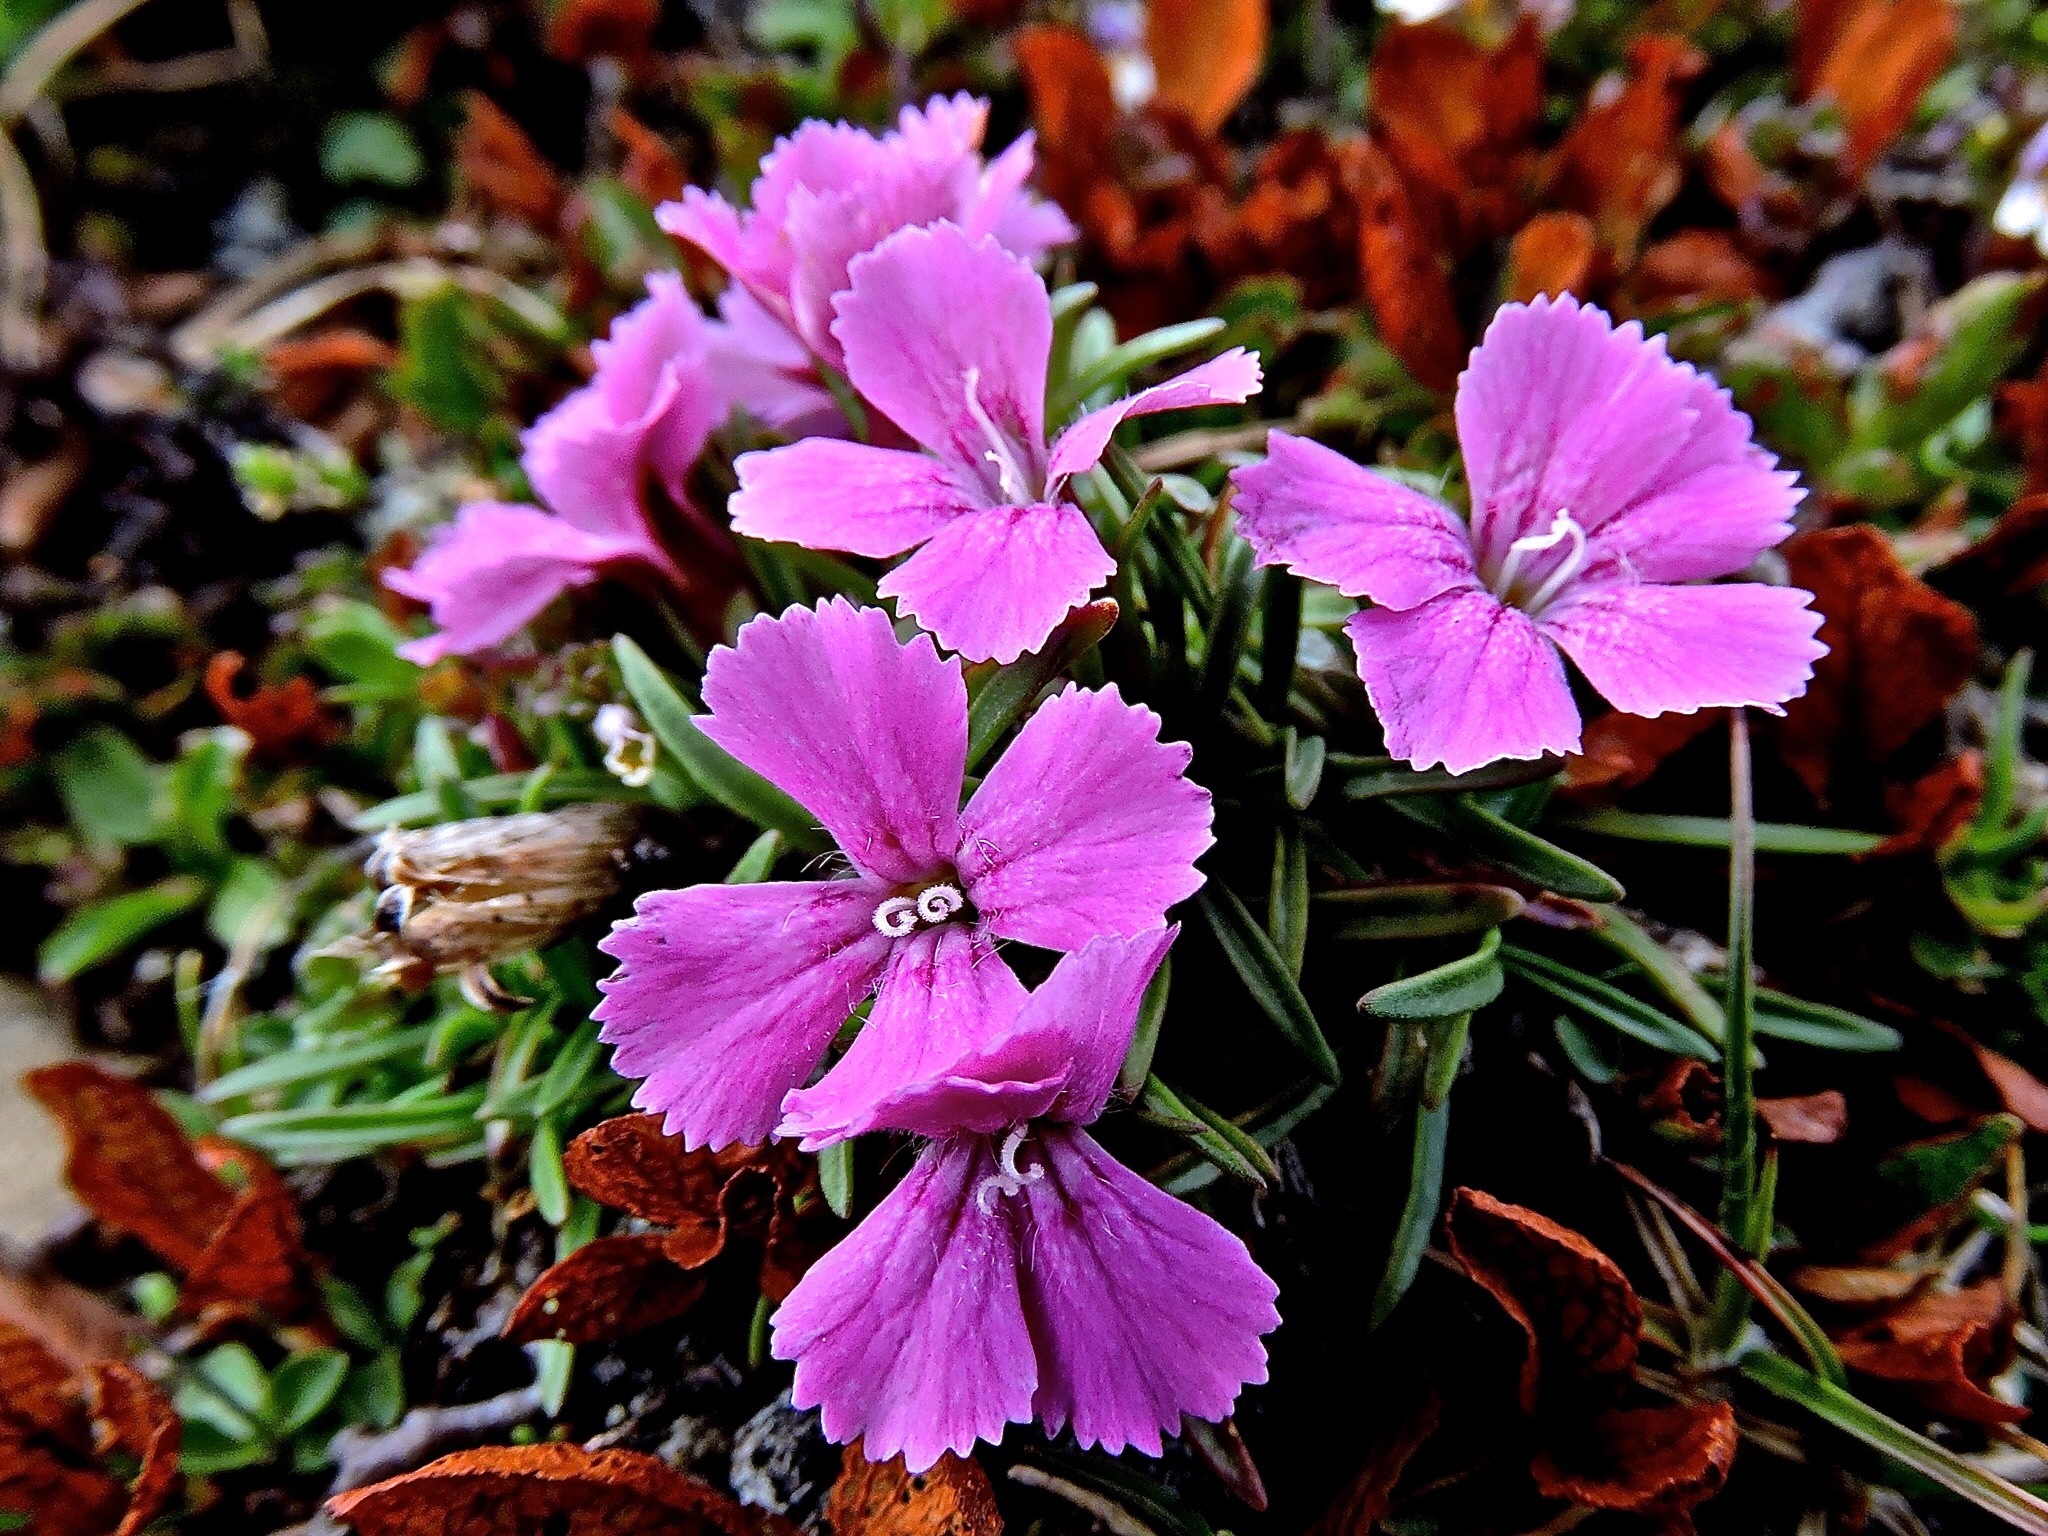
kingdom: Plantae
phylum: Tracheophyta
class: Magnoliopsida
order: Caryophyllales
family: Caryophyllaceae
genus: Dianthus
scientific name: Dianthus glacialis
